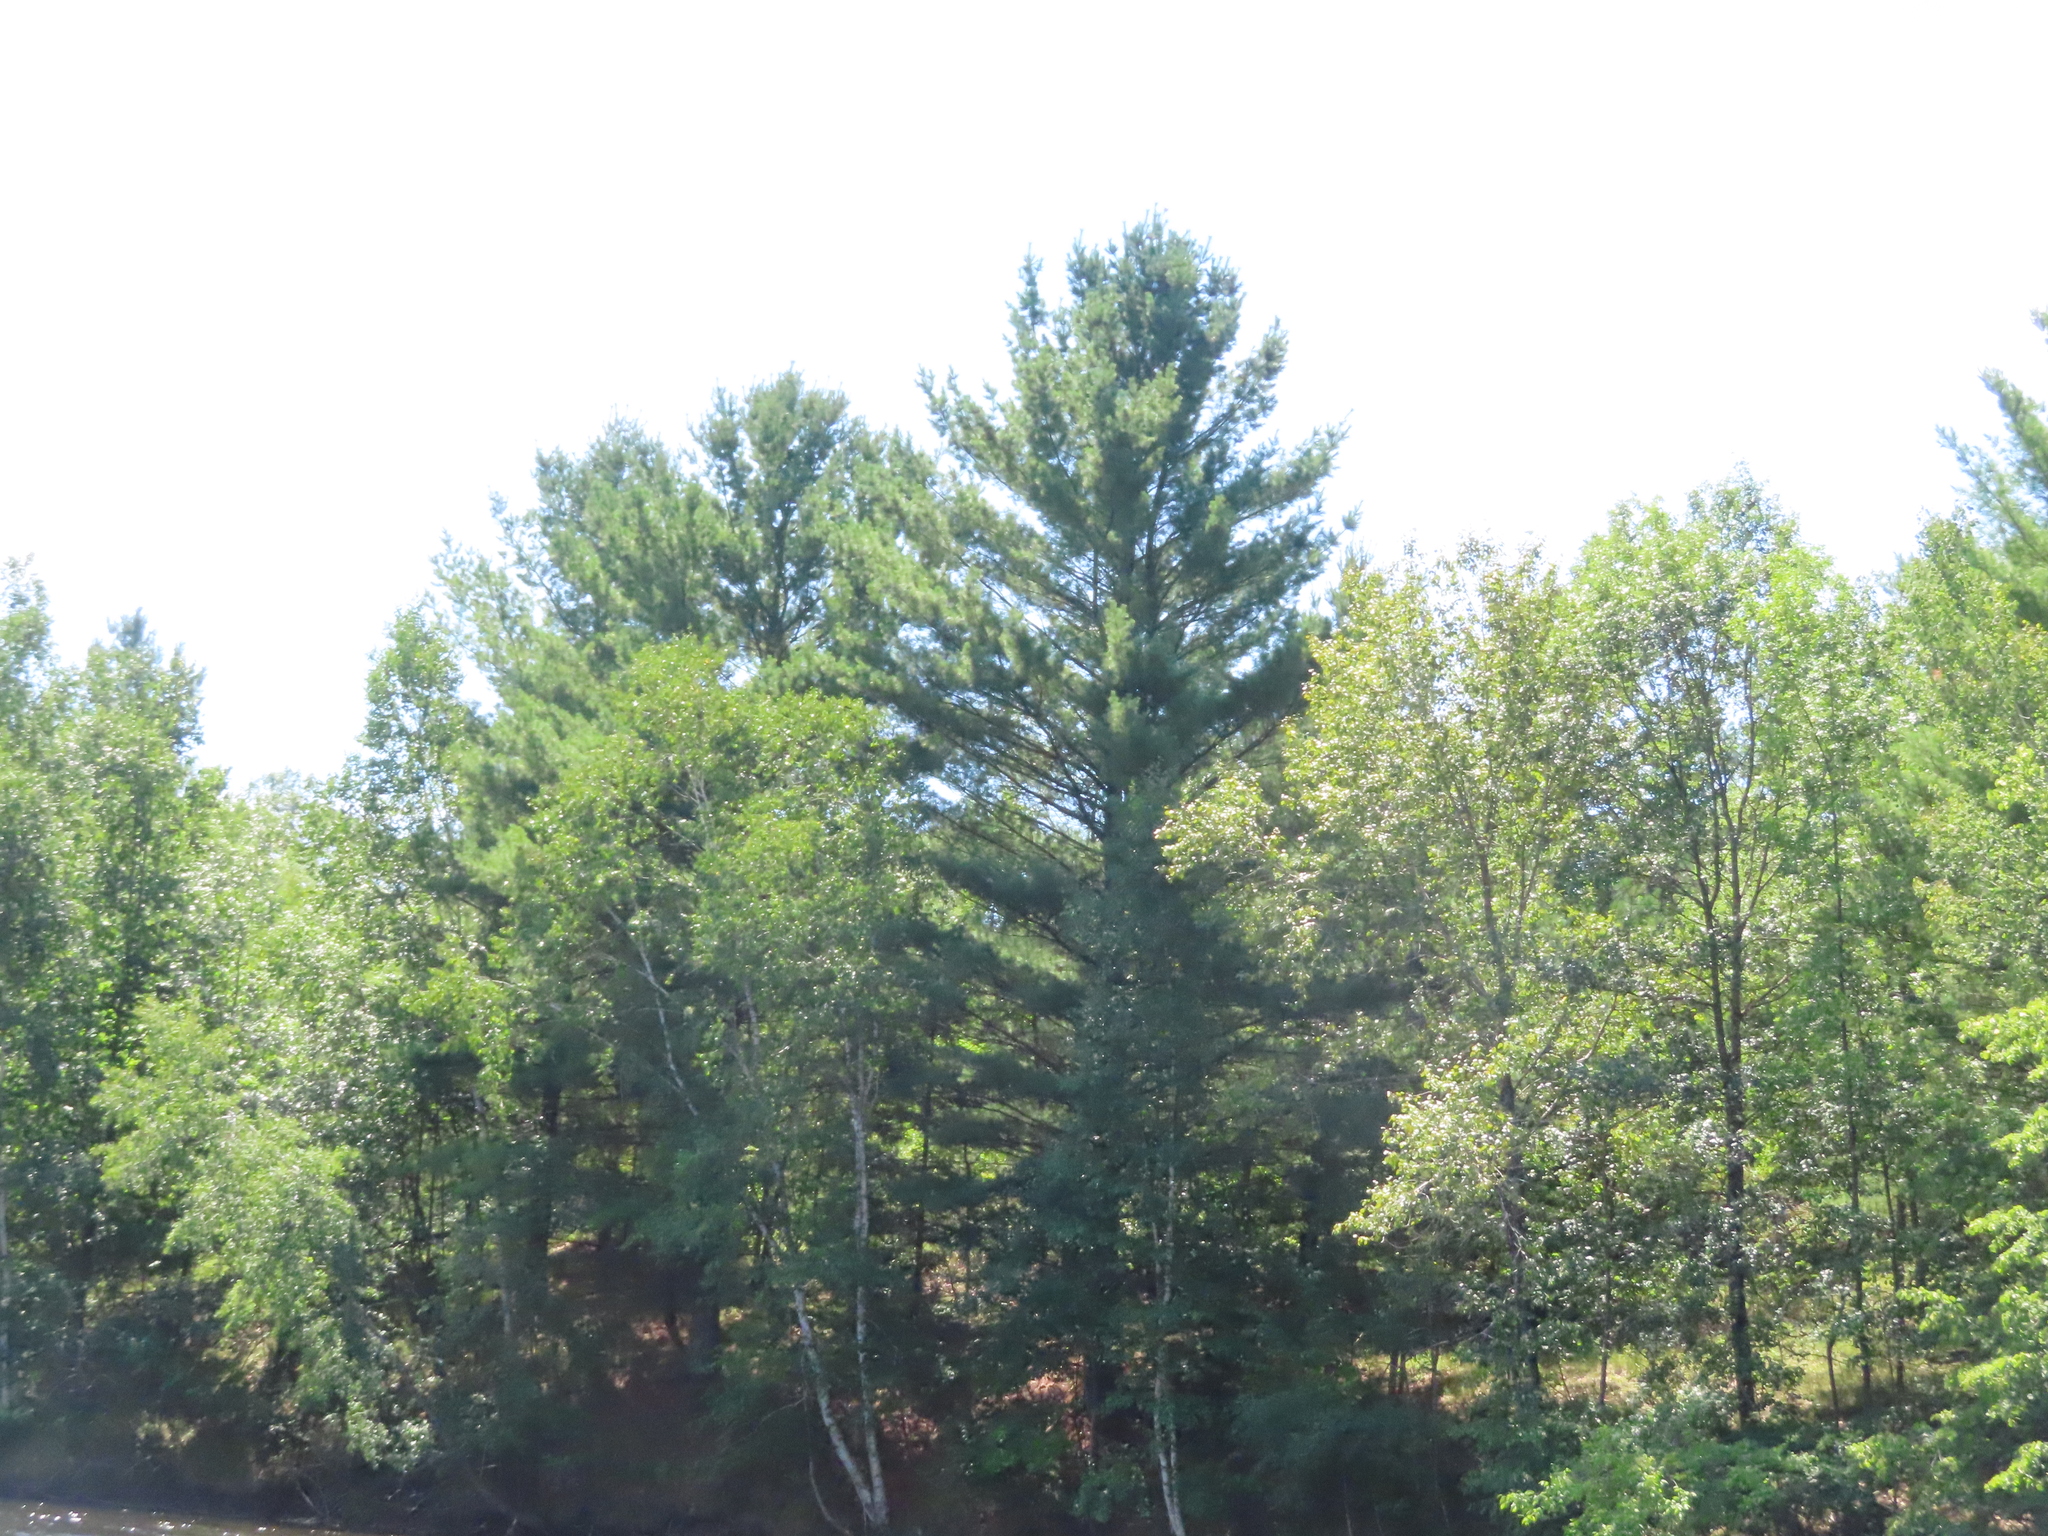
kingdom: Plantae
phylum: Tracheophyta
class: Pinopsida
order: Pinales
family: Pinaceae
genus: Pinus
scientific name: Pinus strobus
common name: Weymouth pine
